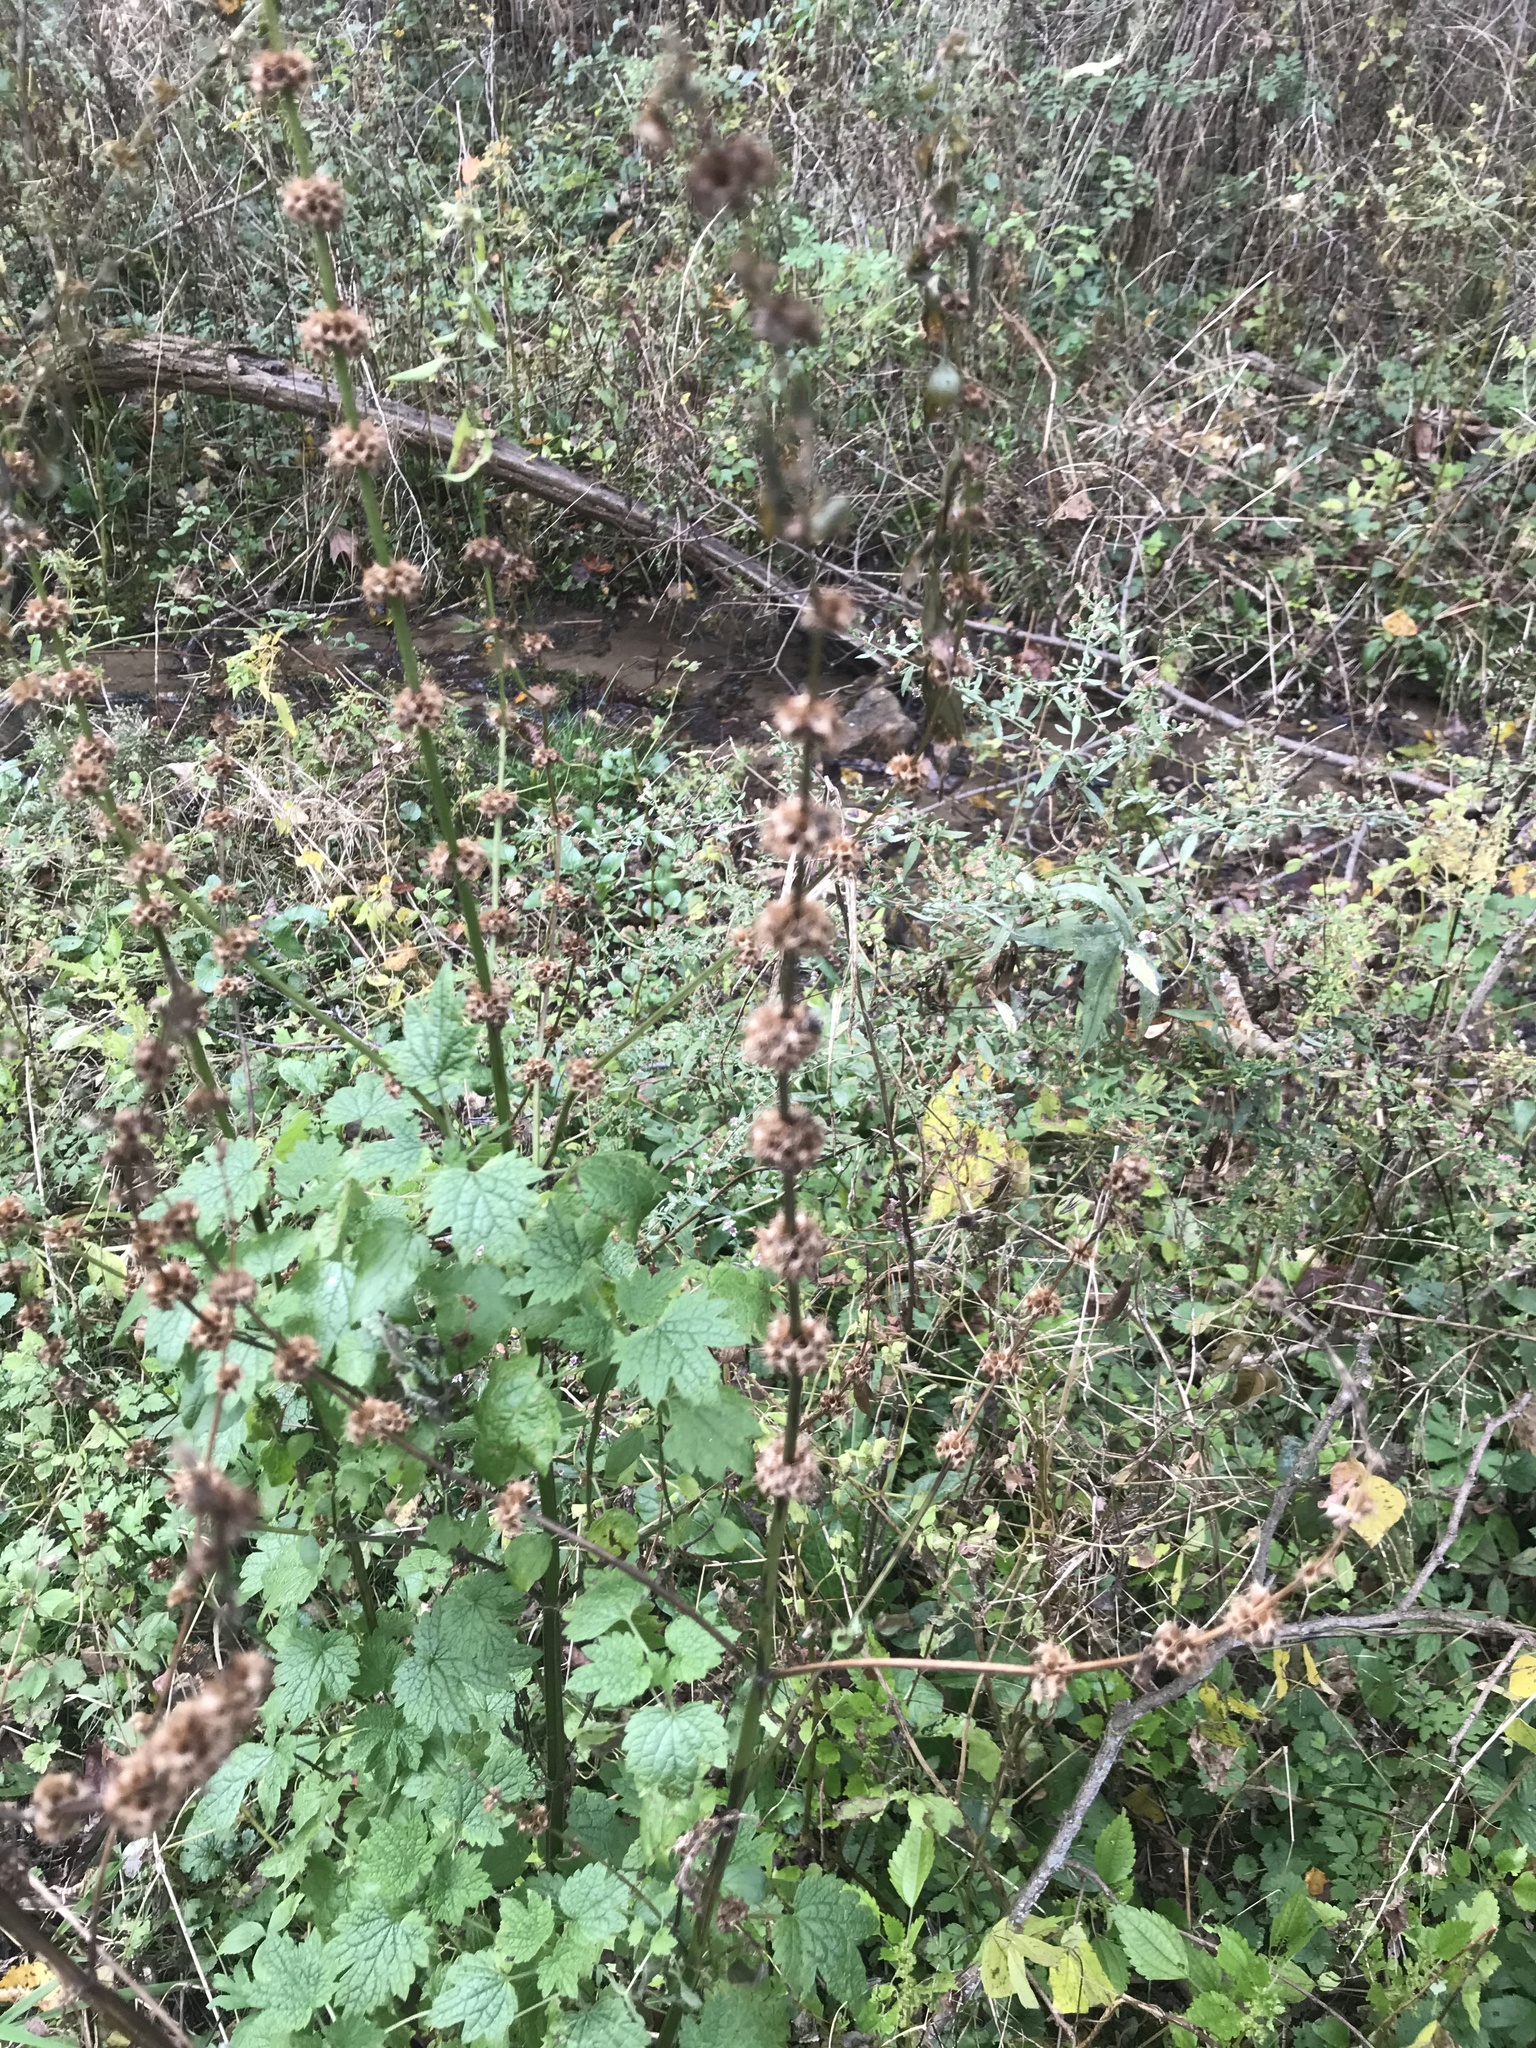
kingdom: Plantae
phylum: Tracheophyta
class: Magnoliopsida
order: Lamiales
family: Lamiaceae
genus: Leonurus
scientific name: Leonurus cardiaca
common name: Motherwort
